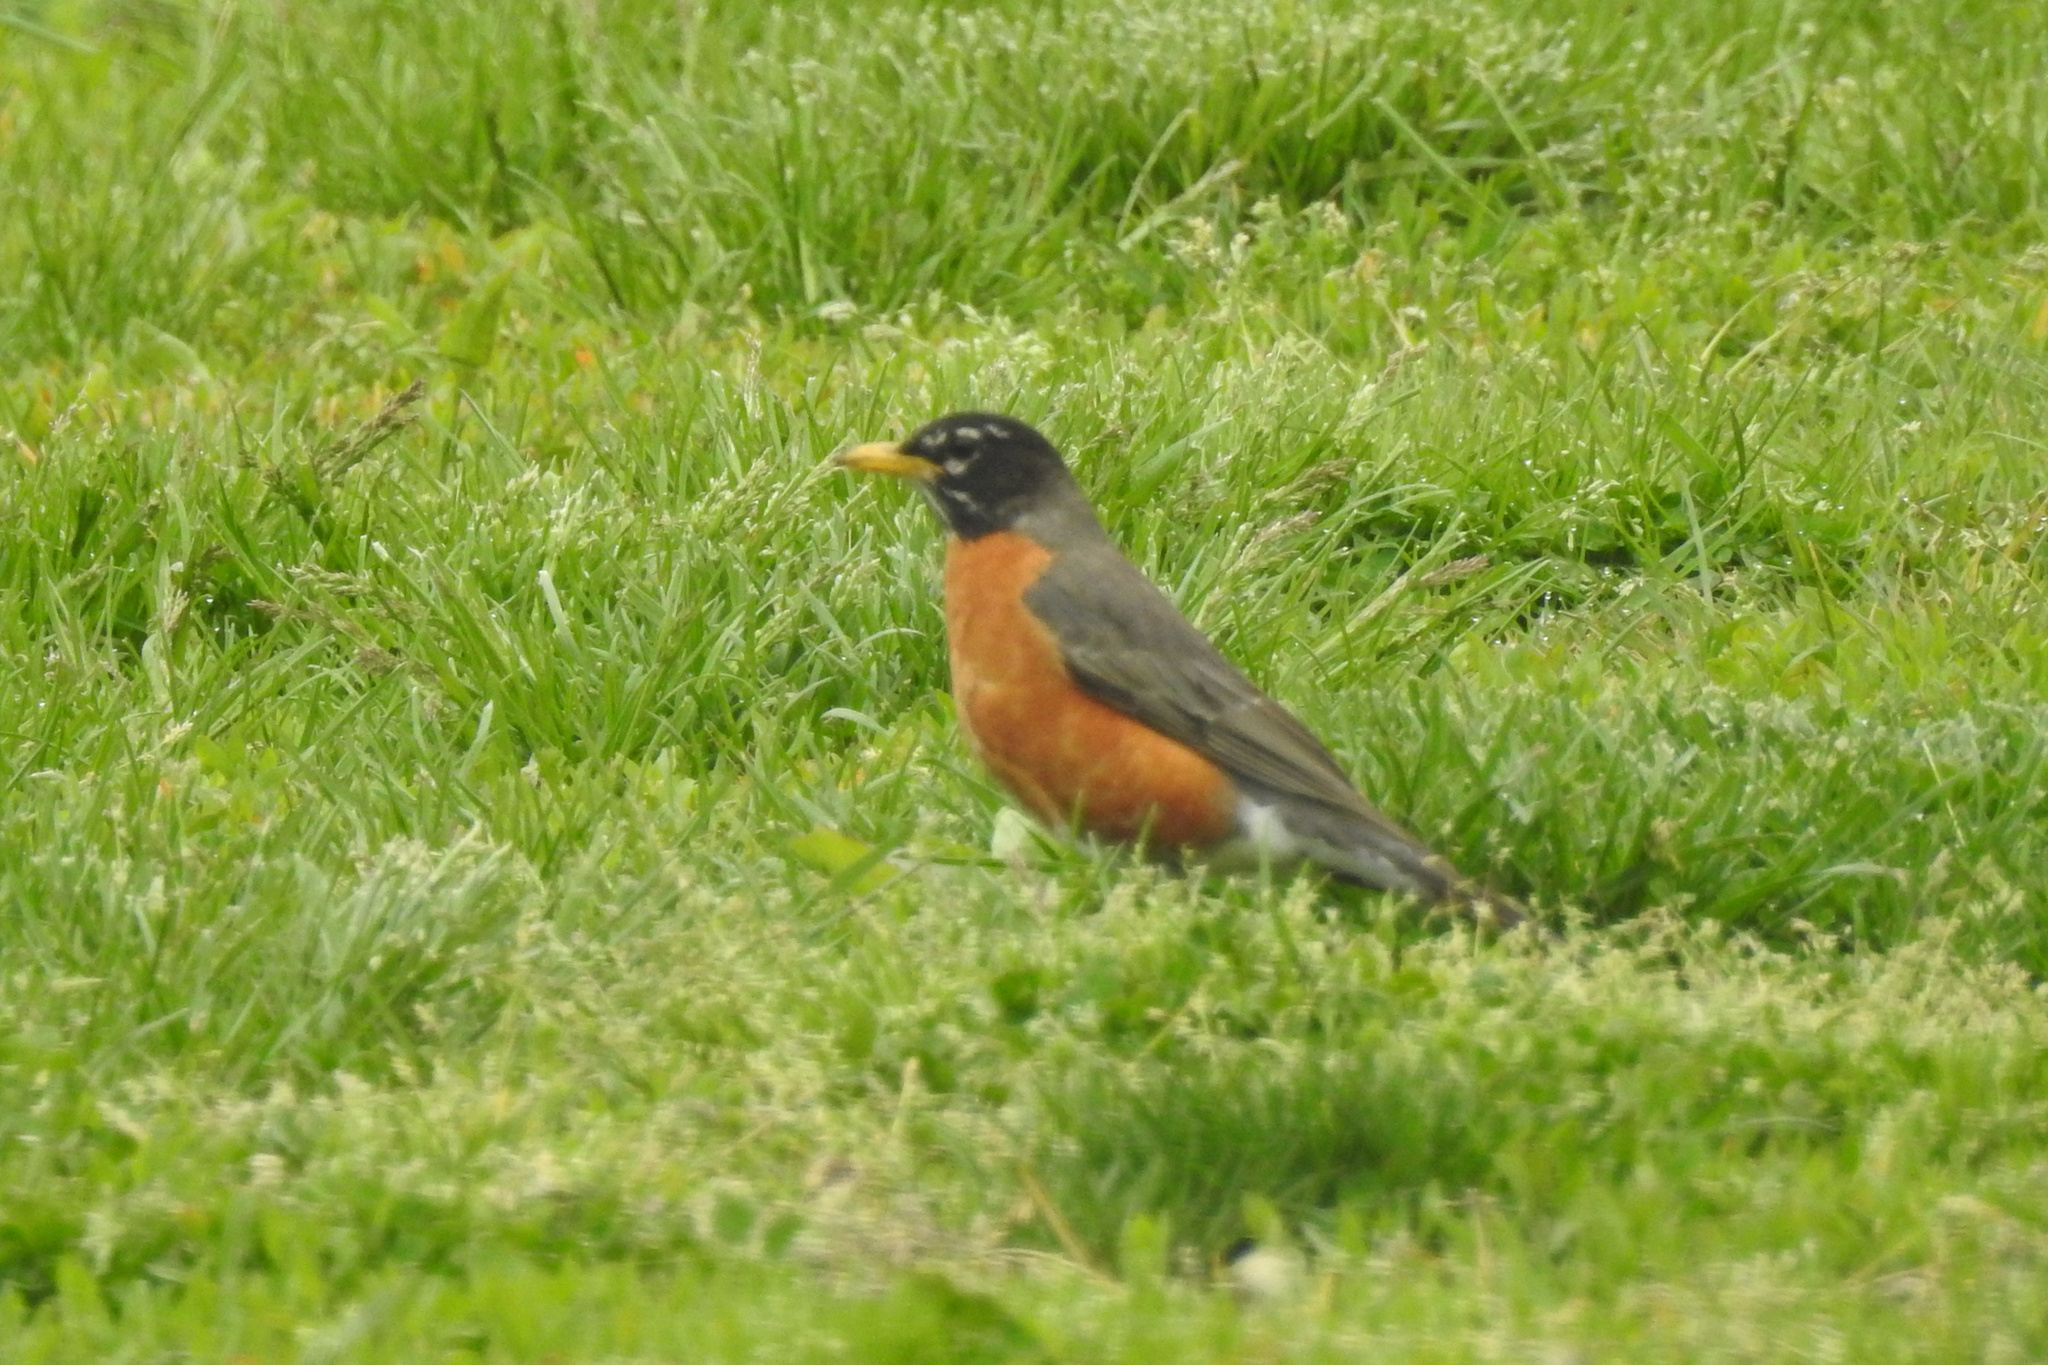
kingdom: Animalia
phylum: Chordata
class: Aves
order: Passeriformes
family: Turdidae
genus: Turdus
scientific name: Turdus migratorius
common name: American robin
